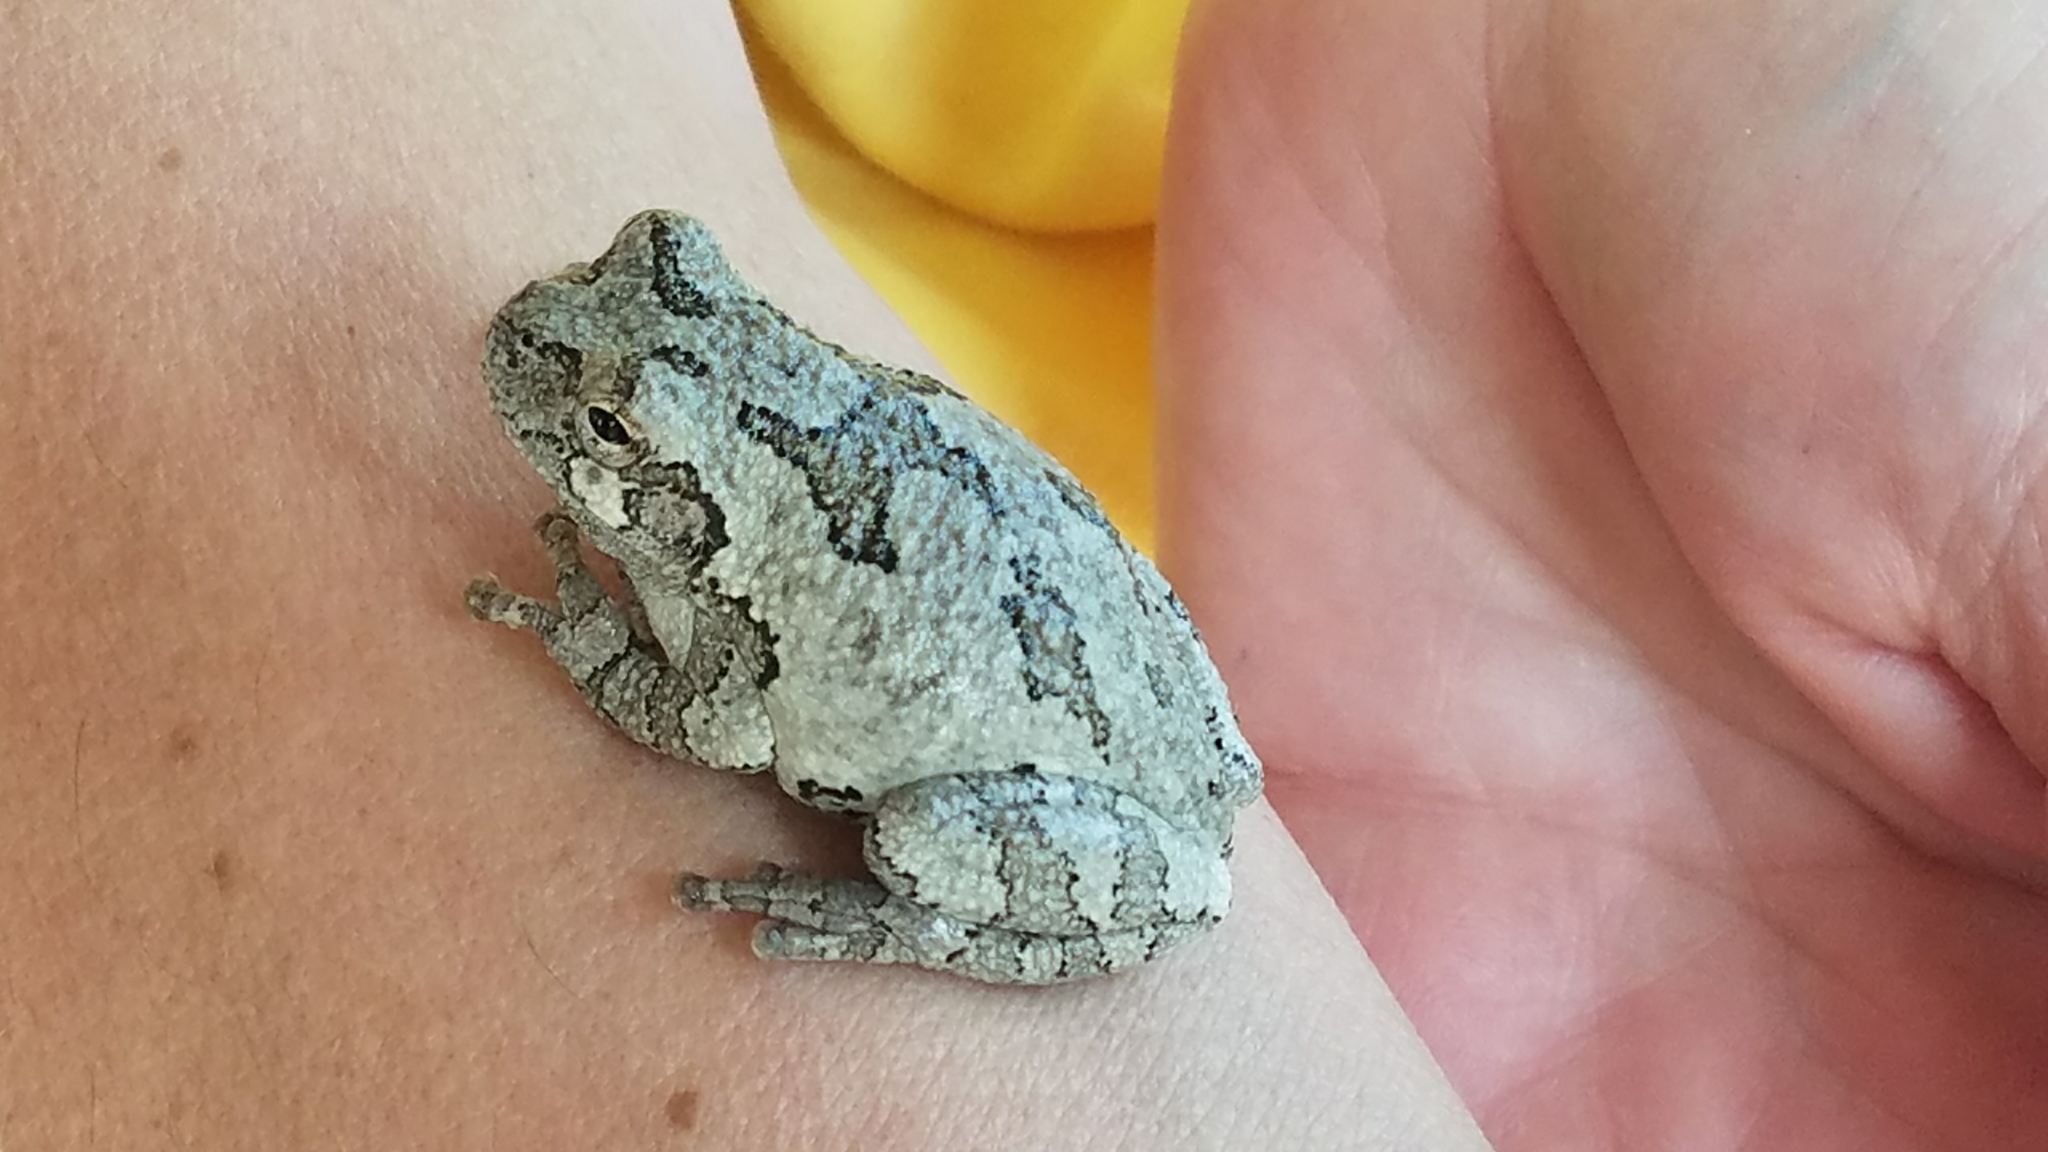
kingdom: Animalia
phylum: Chordata
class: Amphibia
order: Anura
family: Hylidae
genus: Hyla
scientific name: Hyla
